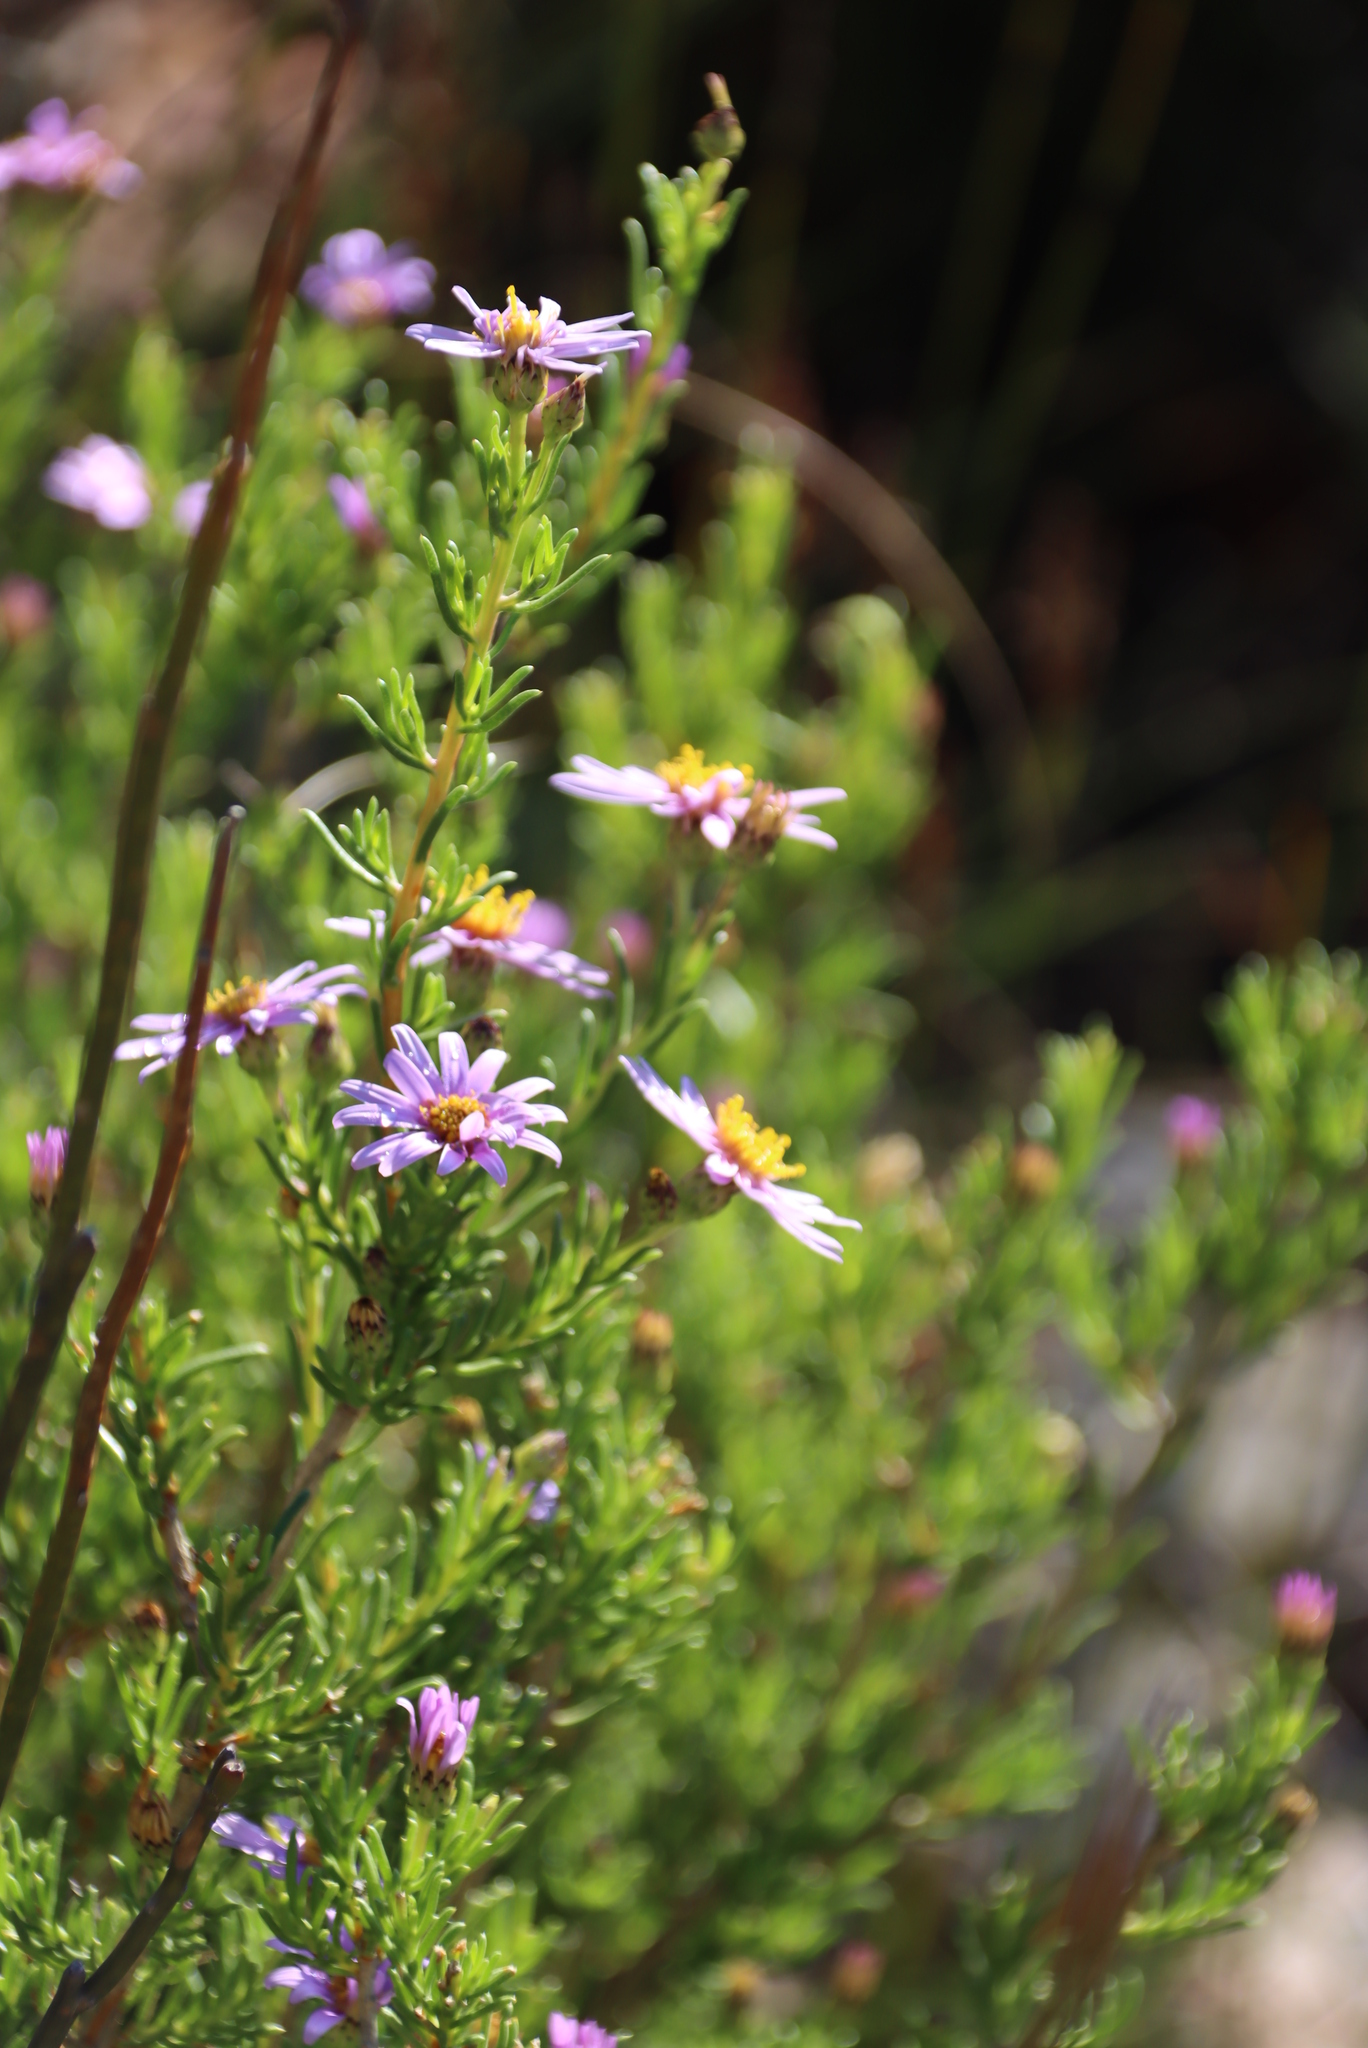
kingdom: Plantae
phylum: Tracheophyta
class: Magnoliopsida
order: Asterales
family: Asteraceae
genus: Felicia
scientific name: Felicia filifolia
